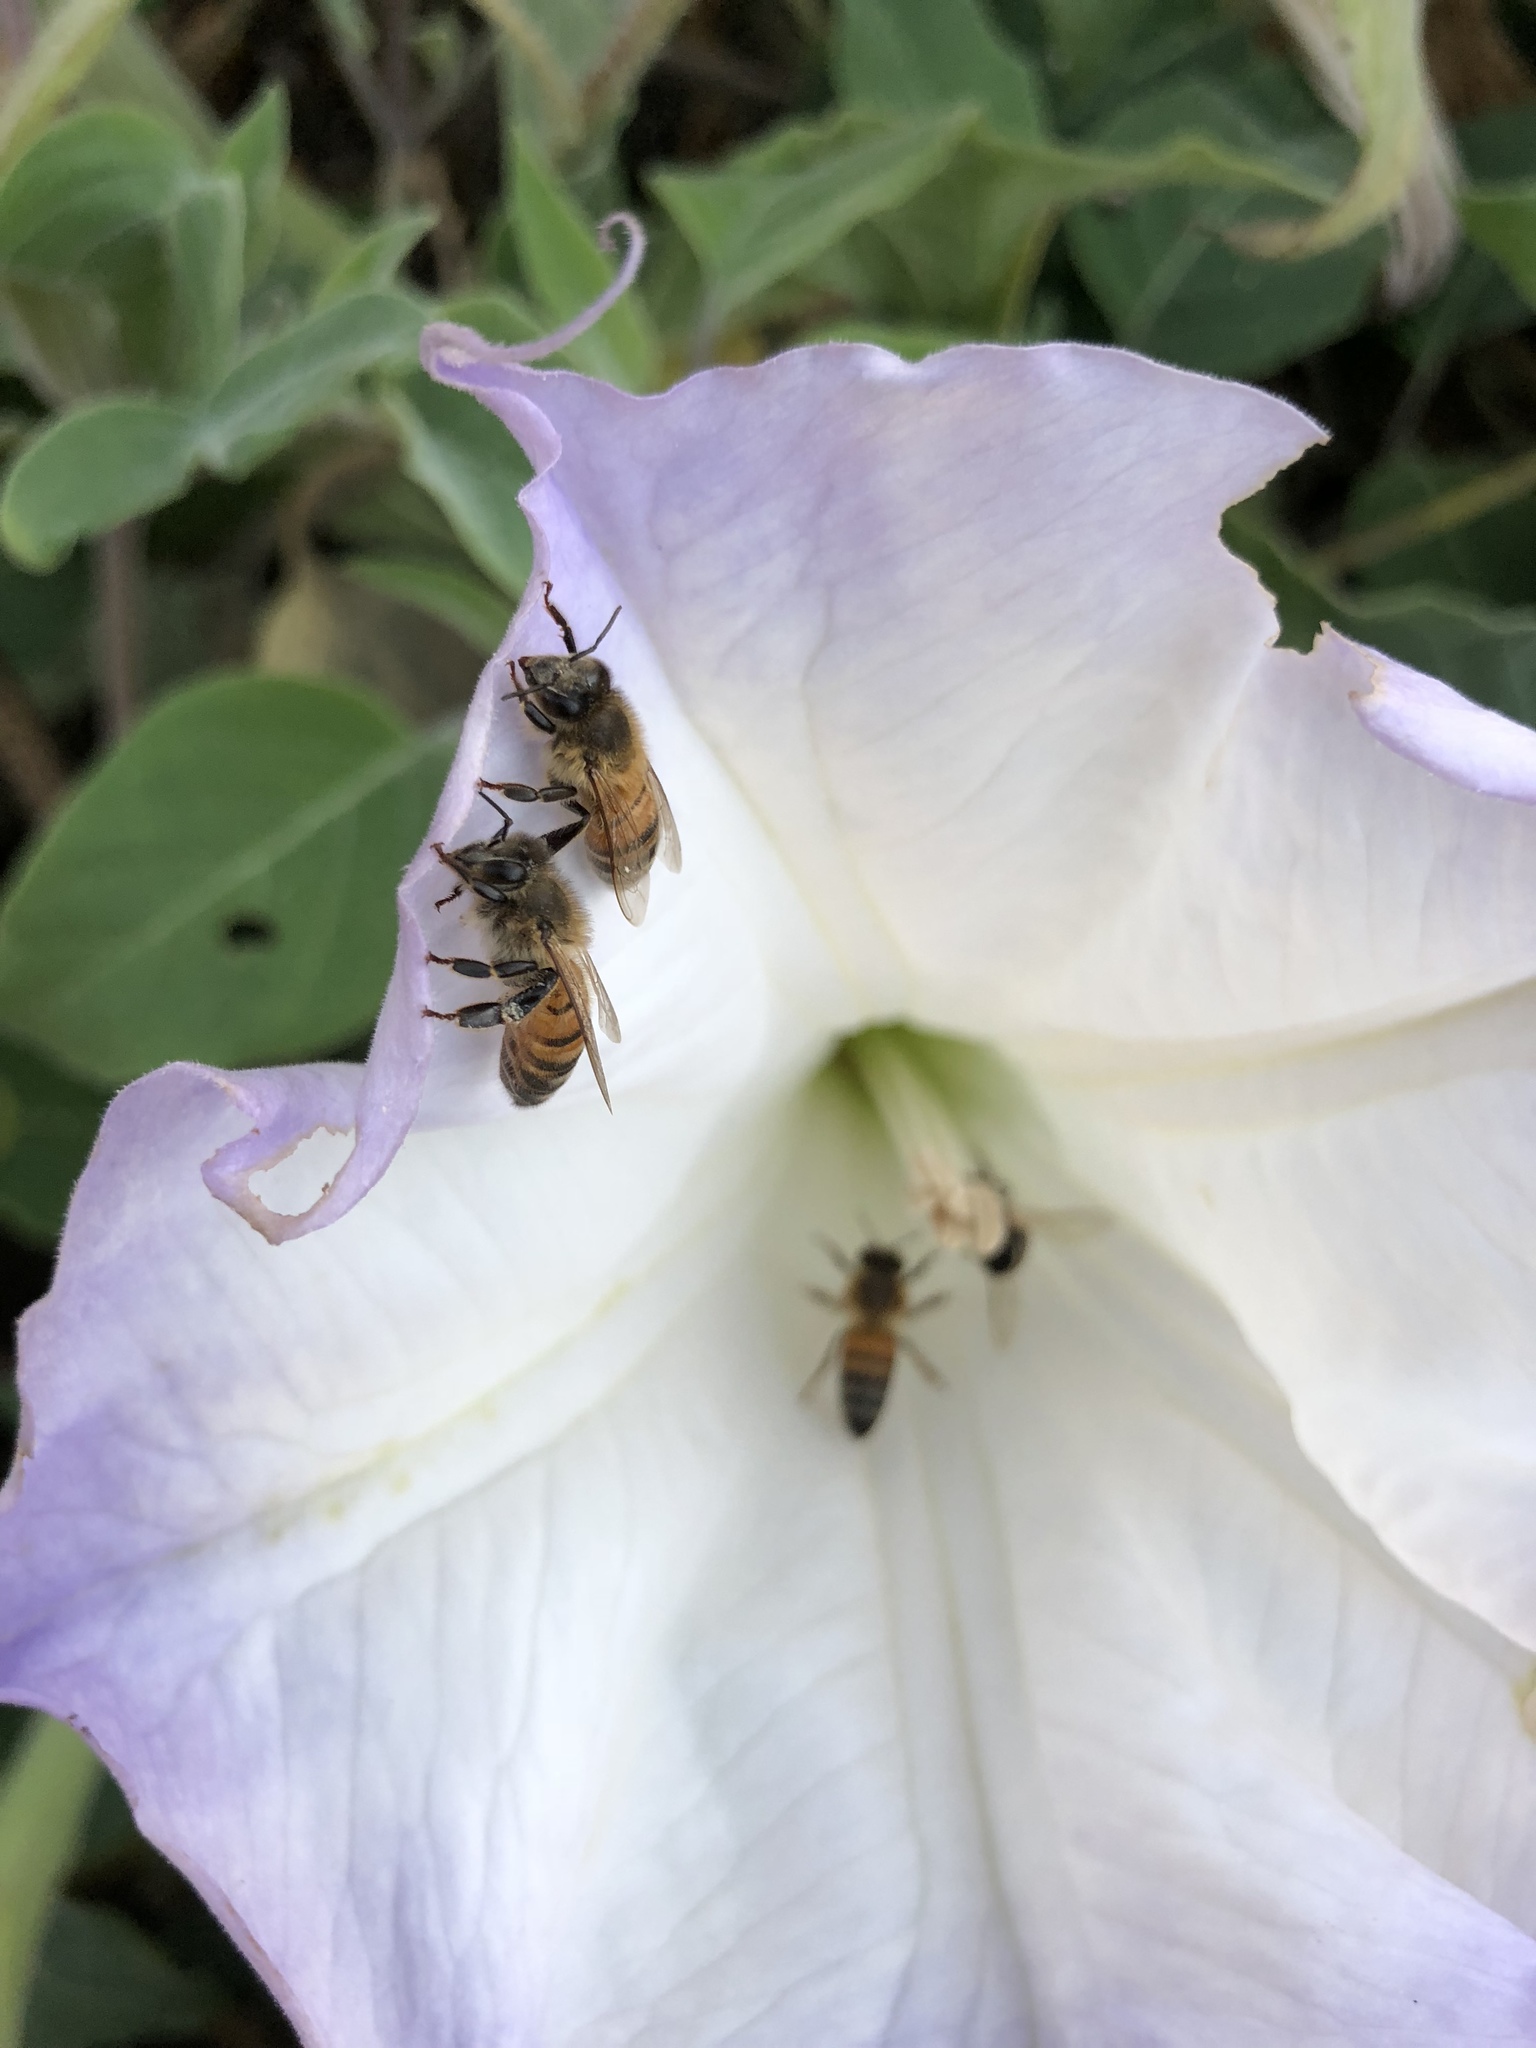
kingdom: Animalia
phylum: Arthropoda
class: Insecta
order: Hymenoptera
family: Apidae
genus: Apis
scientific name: Apis mellifera
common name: Honey bee
